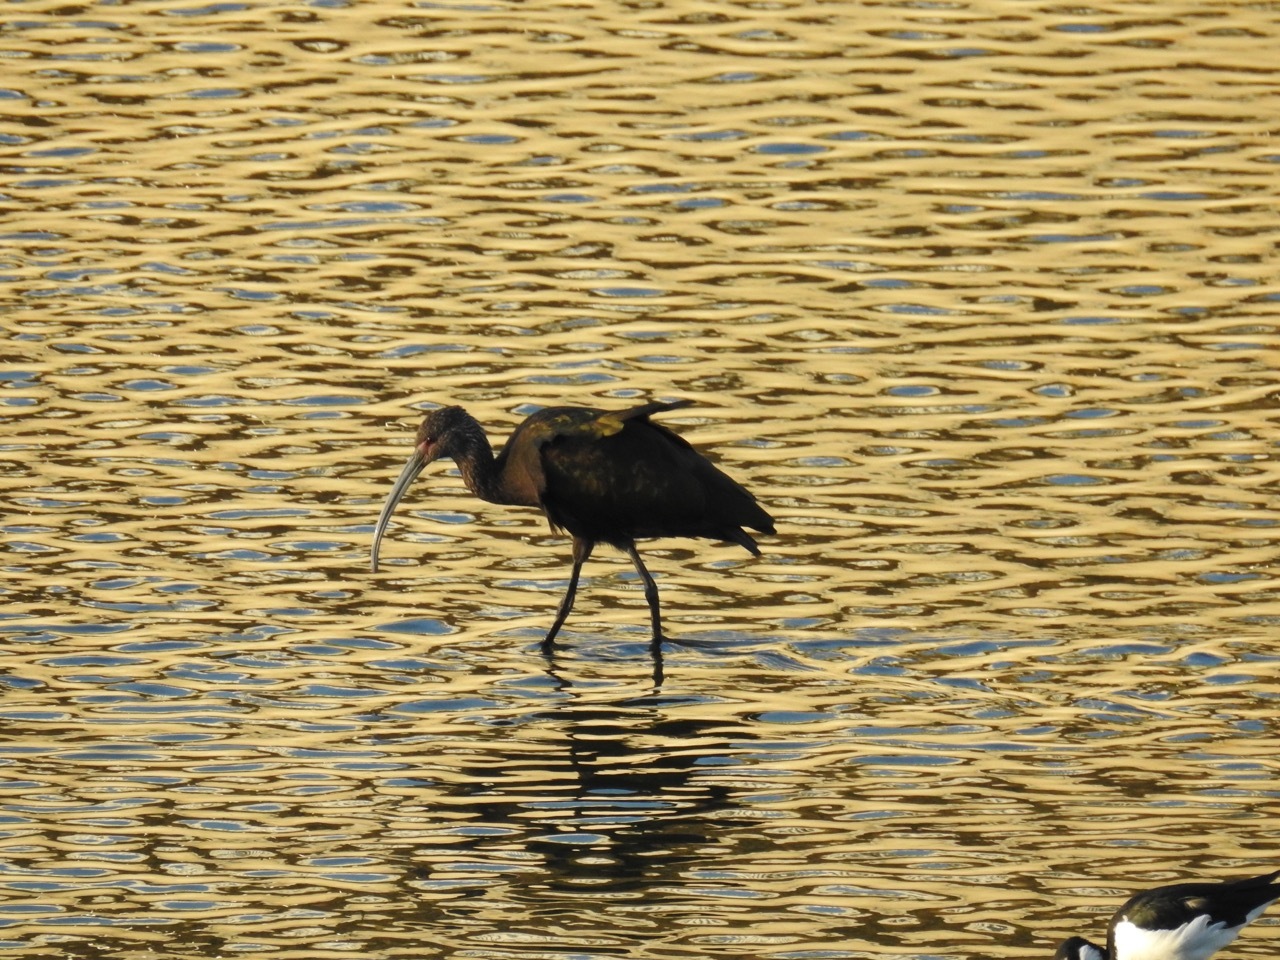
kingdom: Animalia
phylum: Chordata
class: Aves
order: Pelecaniformes
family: Threskiornithidae
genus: Plegadis
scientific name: Plegadis chihi
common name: White-faced ibis
